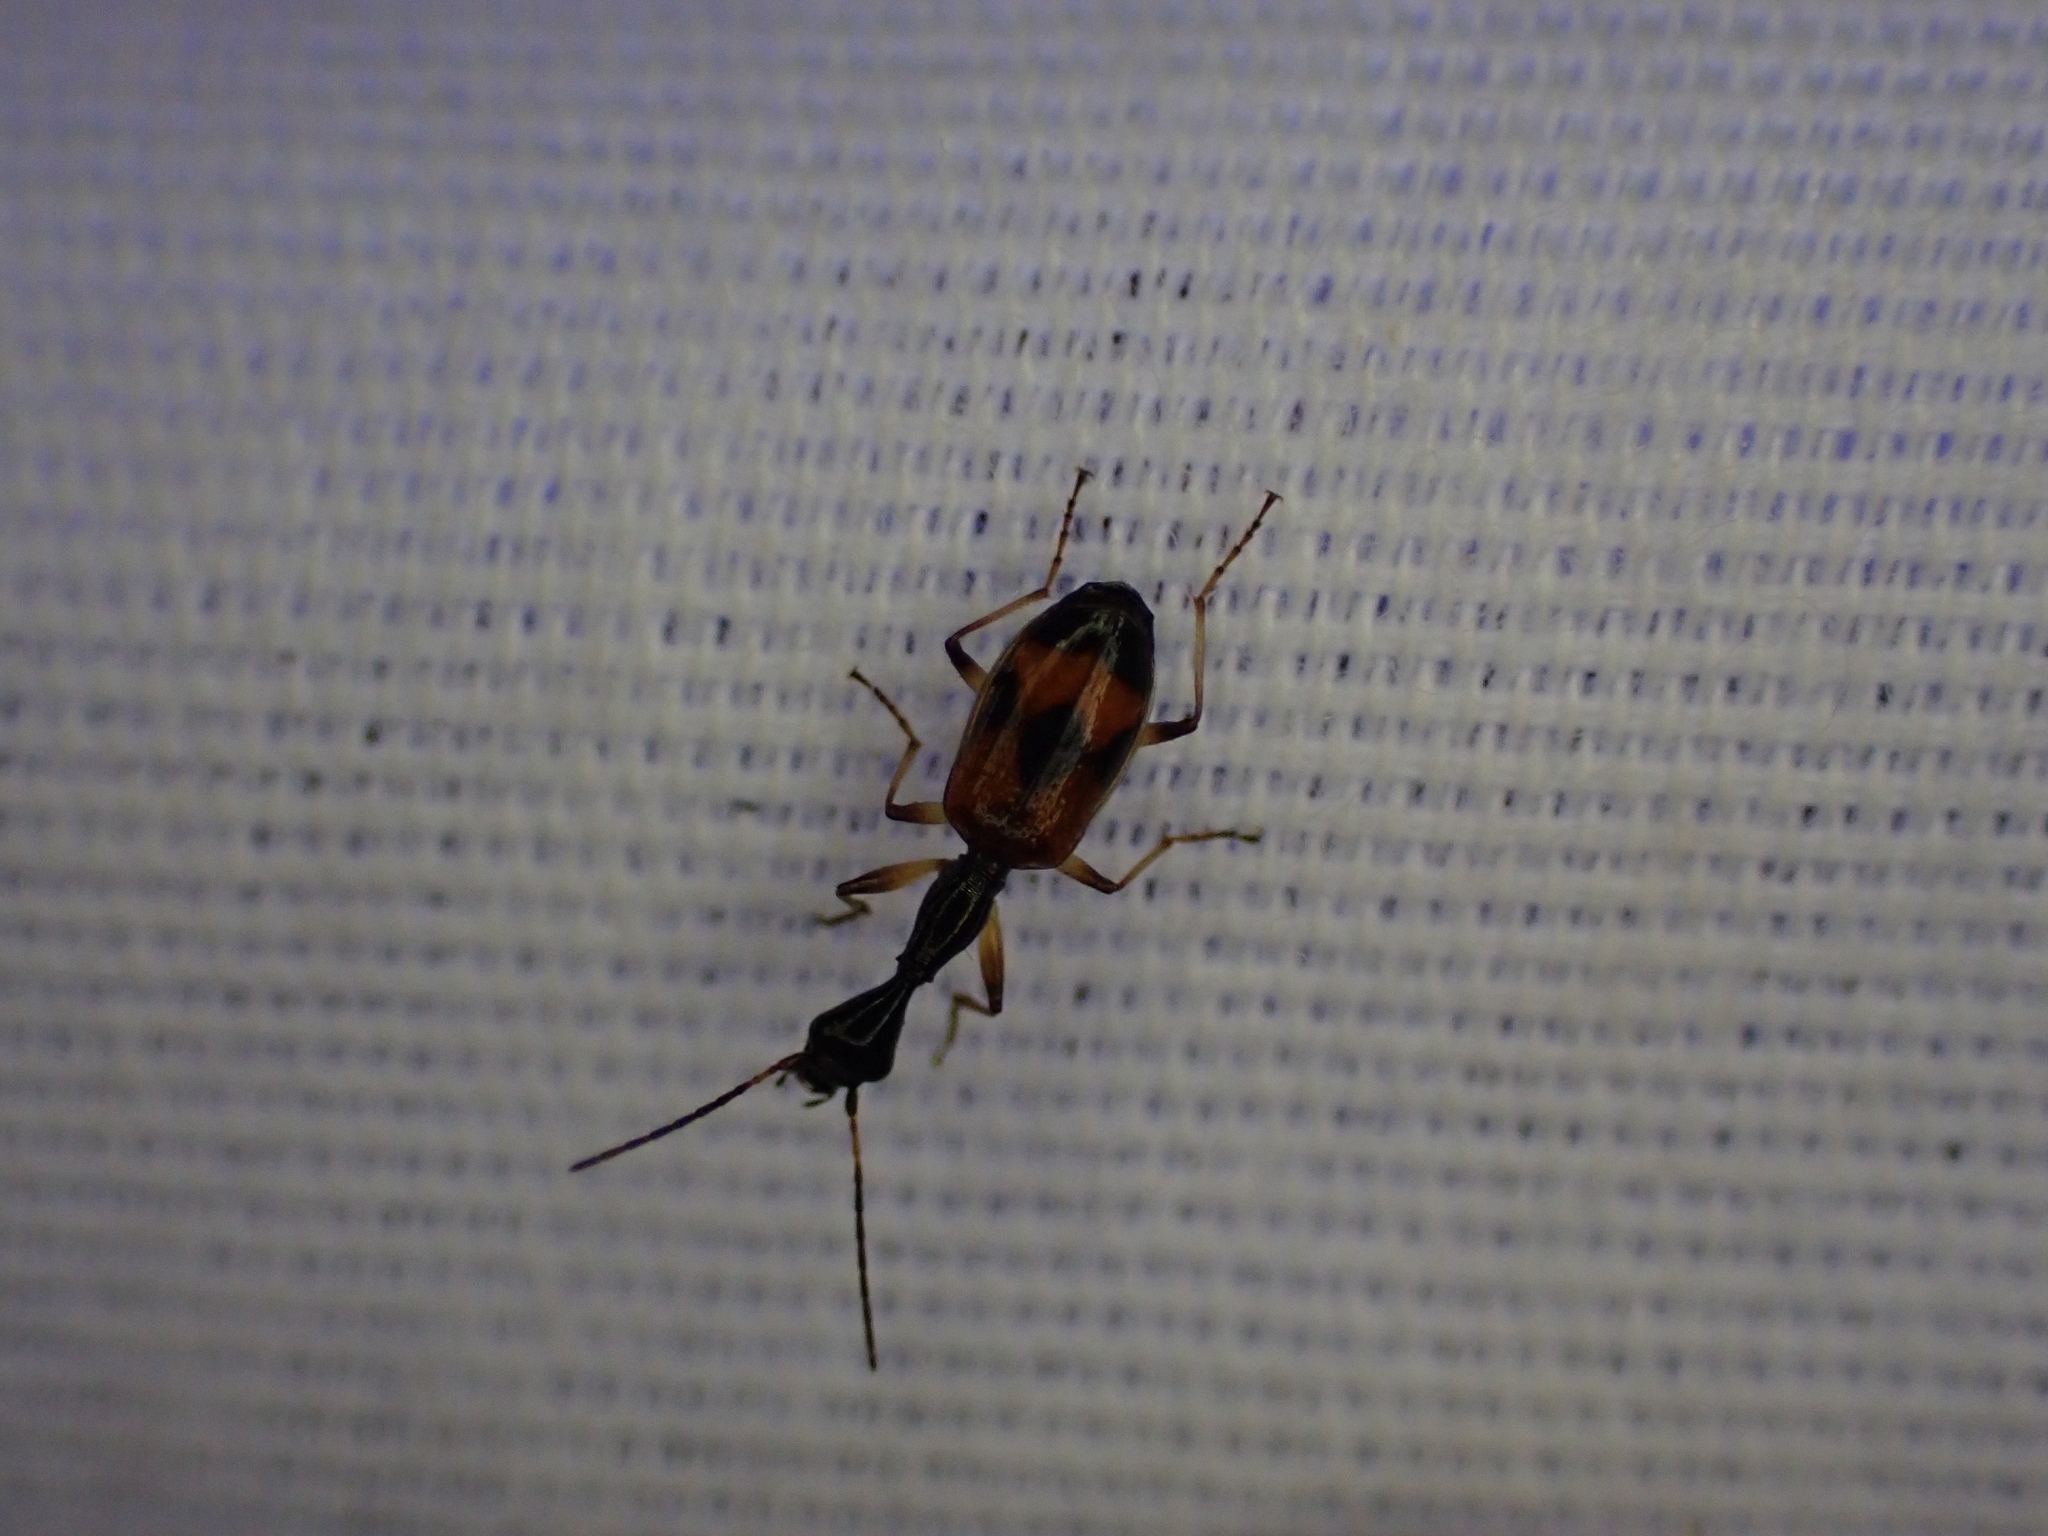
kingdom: Animalia
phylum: Arthropoda
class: Insecta
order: Coleoptera
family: Carabidae
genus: Colliuris
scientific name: Colliuris pensylvanica
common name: Long-necked ground beetle
